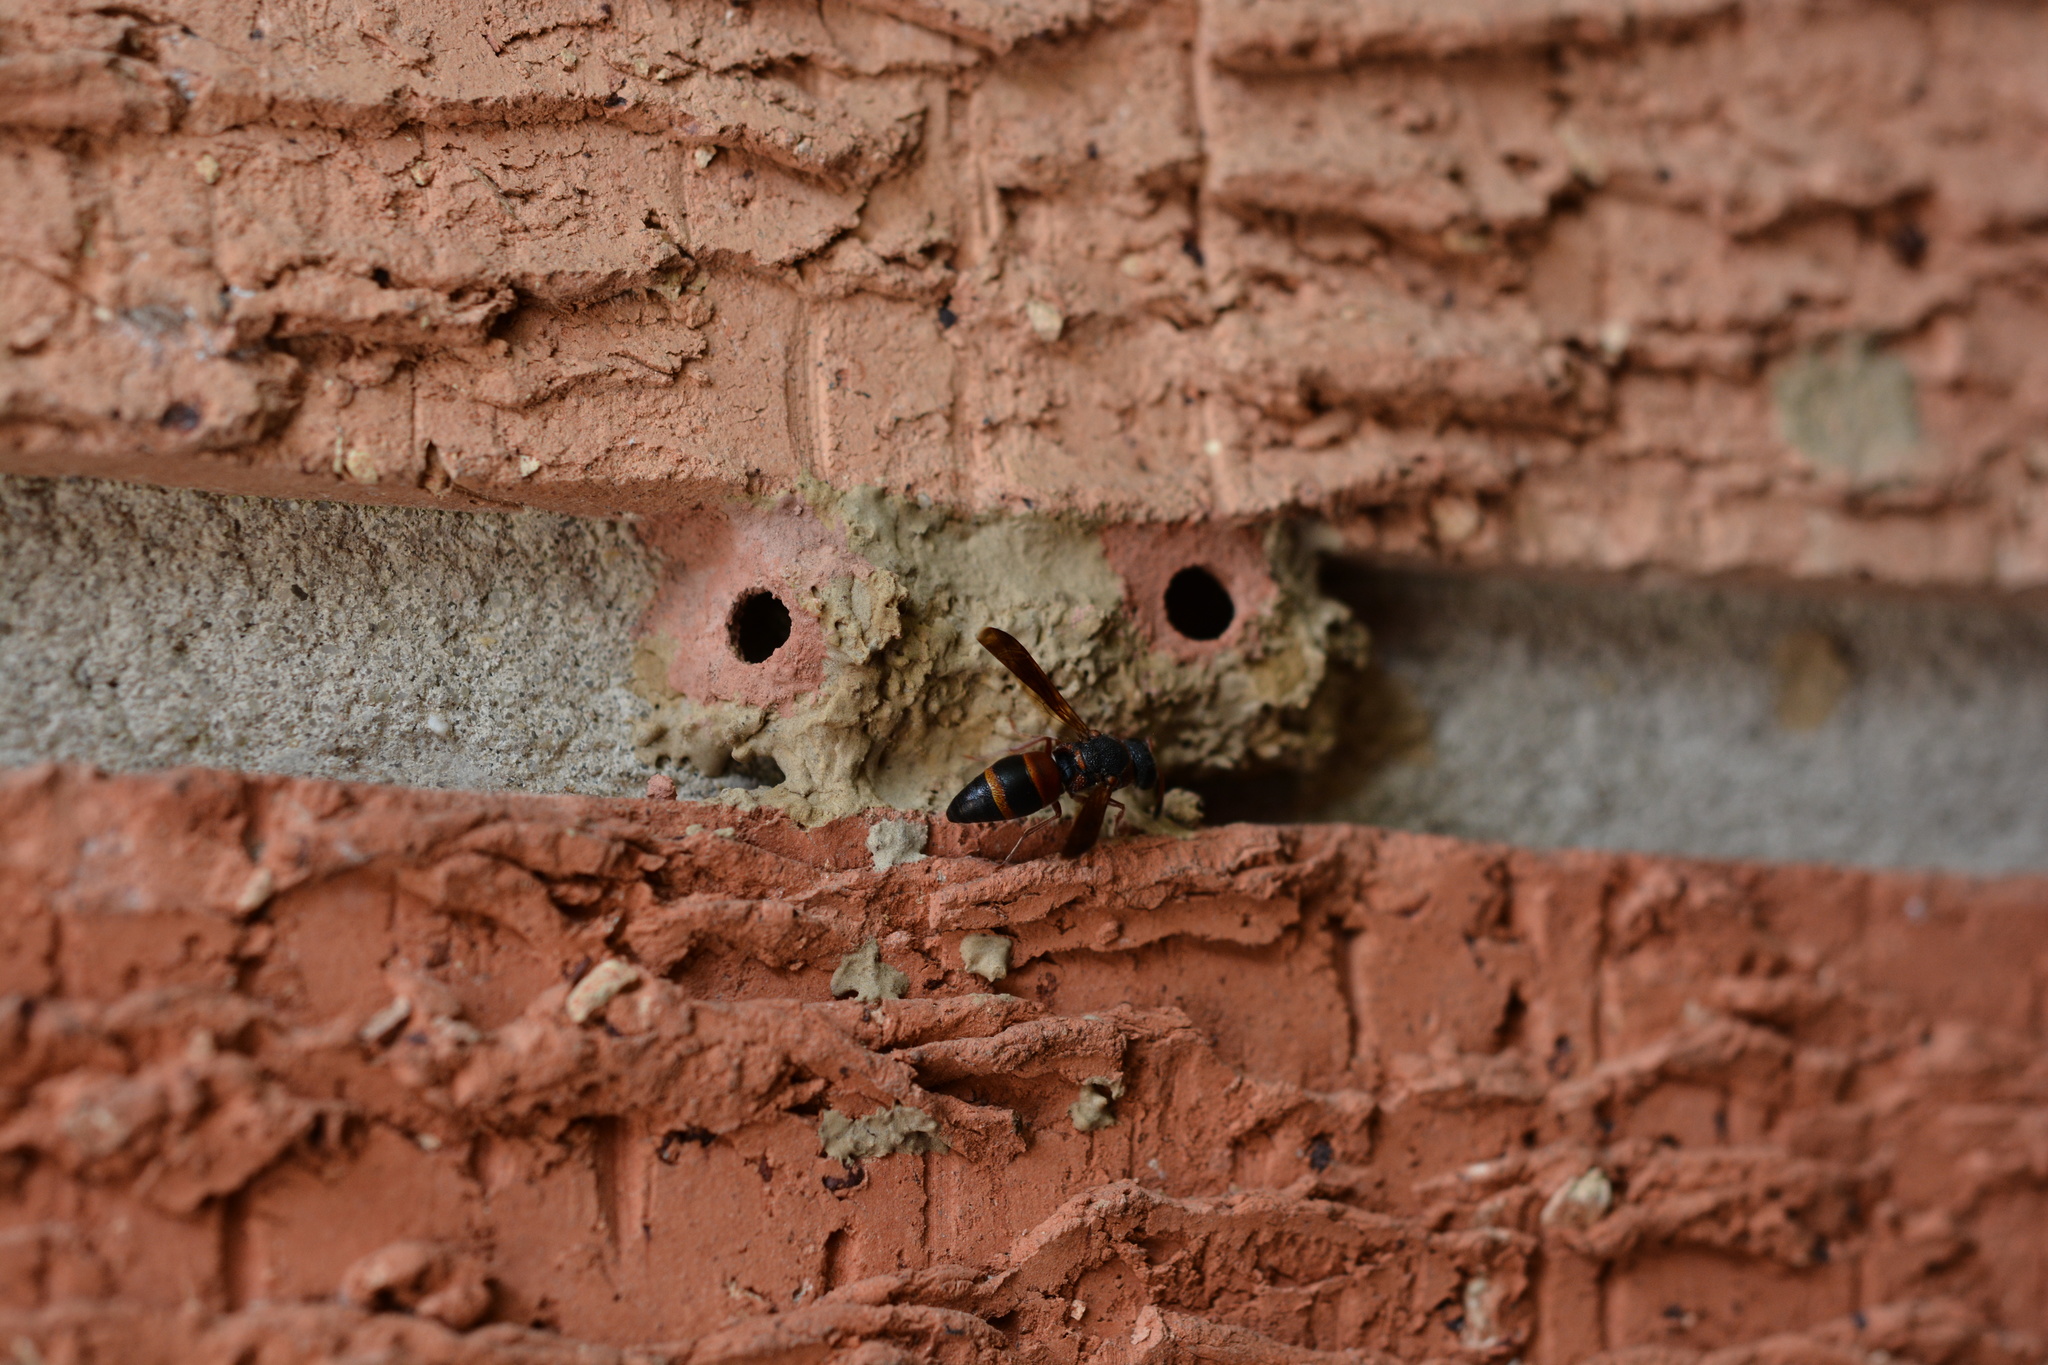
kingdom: Animalia
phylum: Arthropoda
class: Insecta
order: Hymenoptera
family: Eumenidae
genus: Pachodynerus
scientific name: Pachodynerus erynnis
